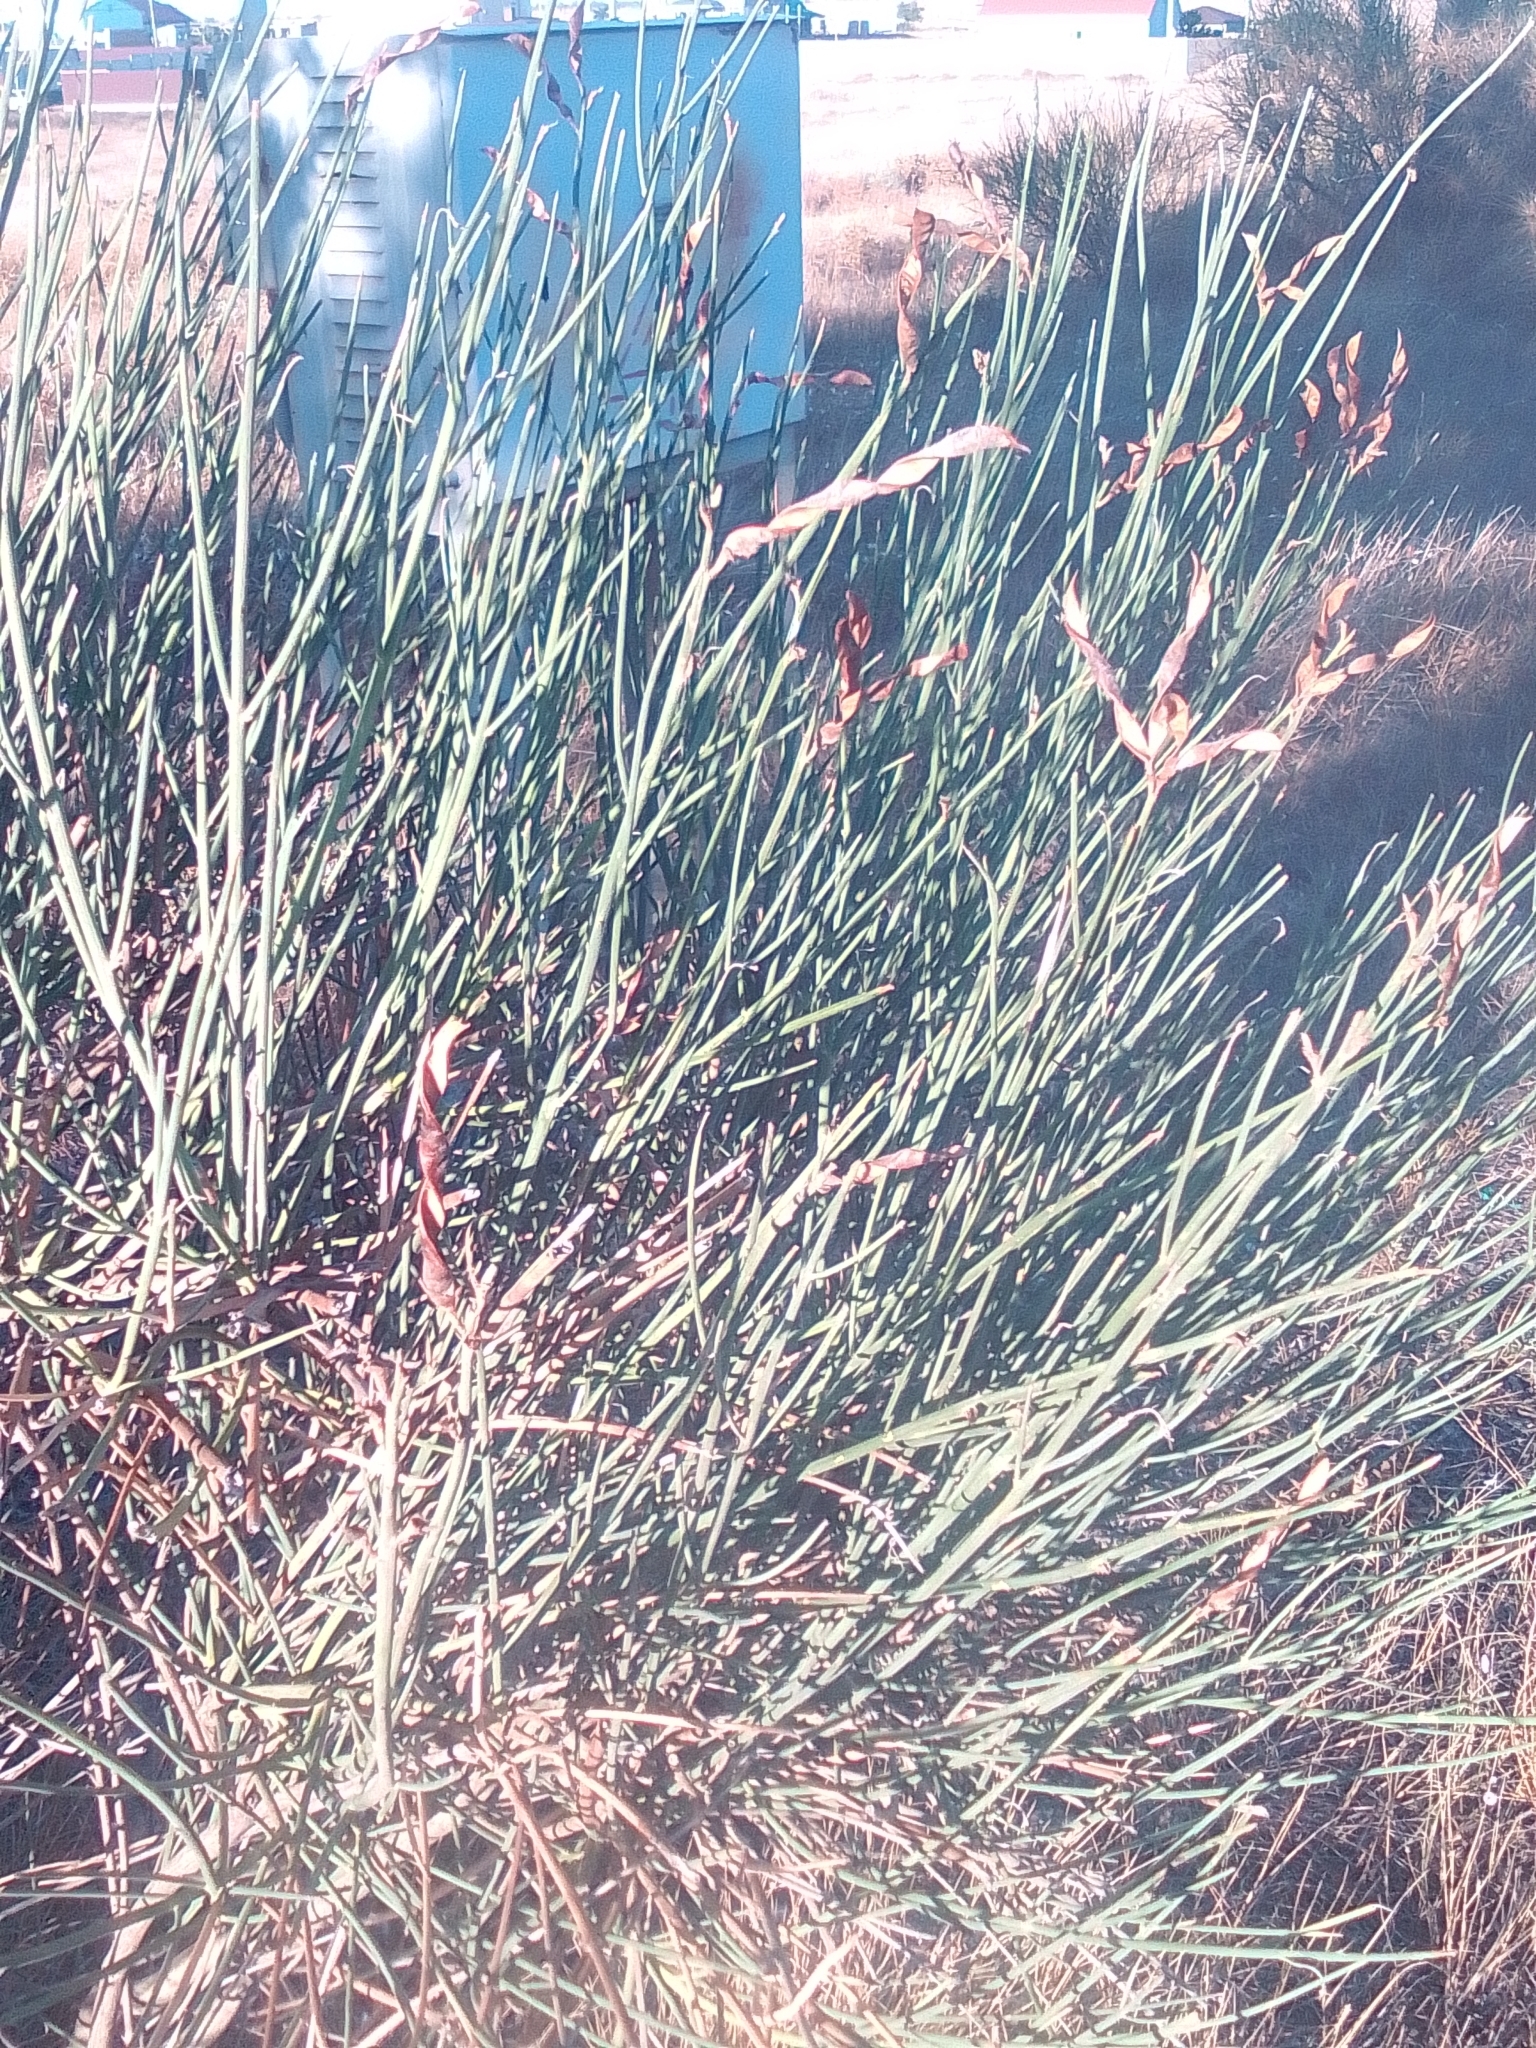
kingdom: Plantae
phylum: Tracheophyta
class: Magnoliopsida
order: Fabales
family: Fabaceae
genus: Spartium
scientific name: Spartium junceum
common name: Spanish broom
